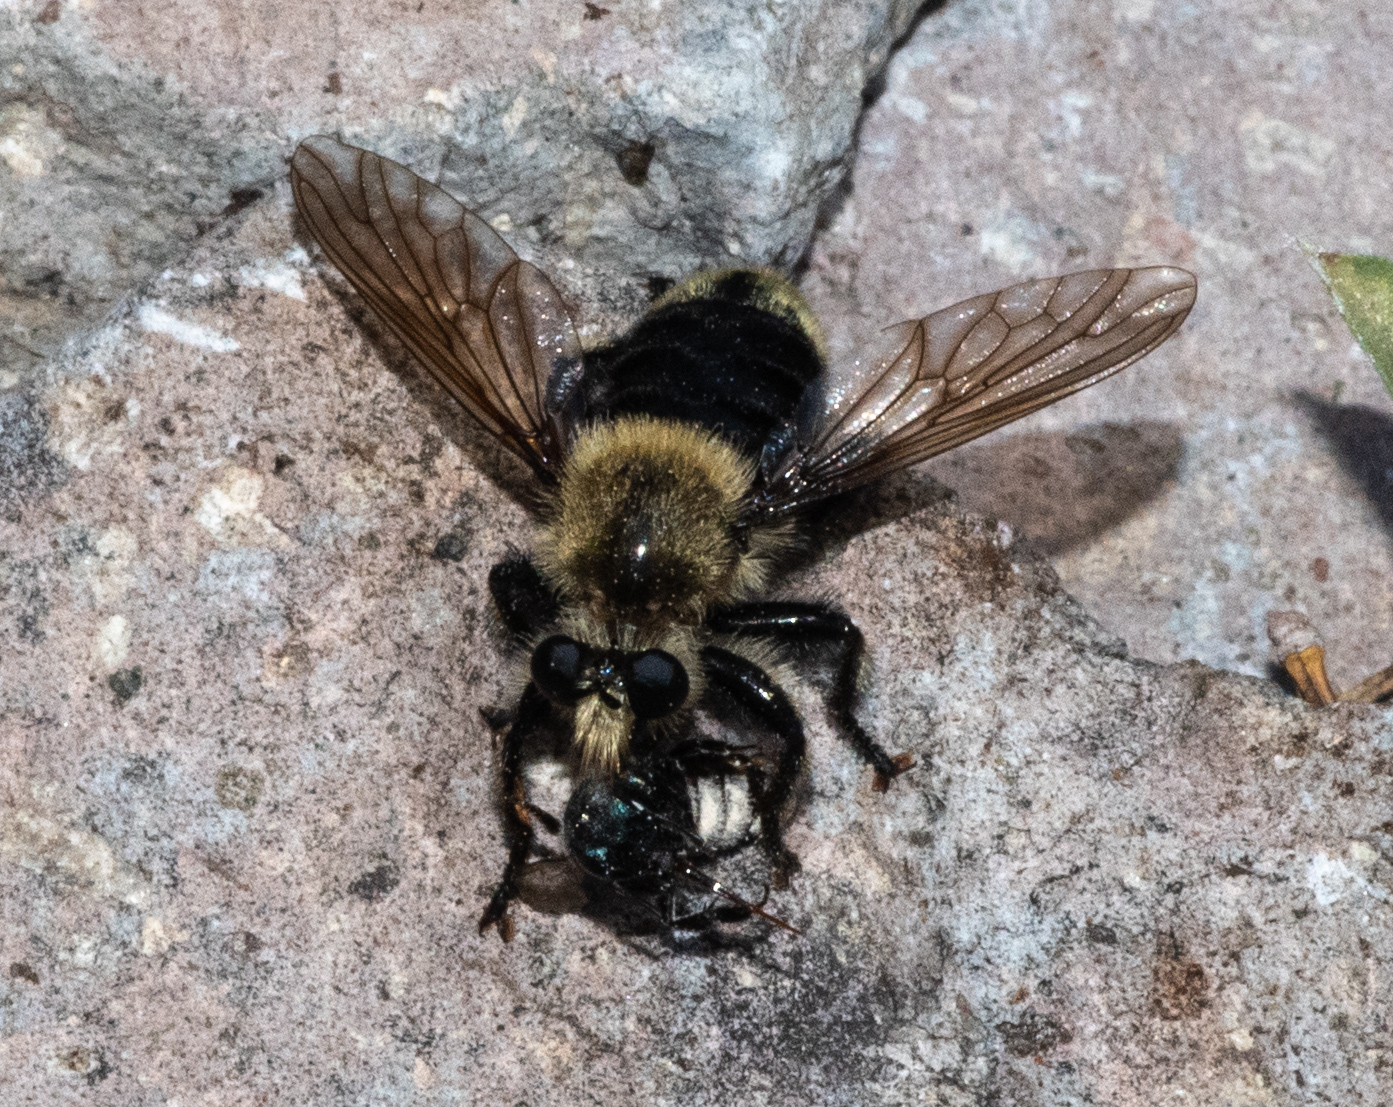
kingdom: Animalia
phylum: Arthropoda
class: Insecta
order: Diptera
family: Asilidae
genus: Laphria
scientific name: Laphria astur
